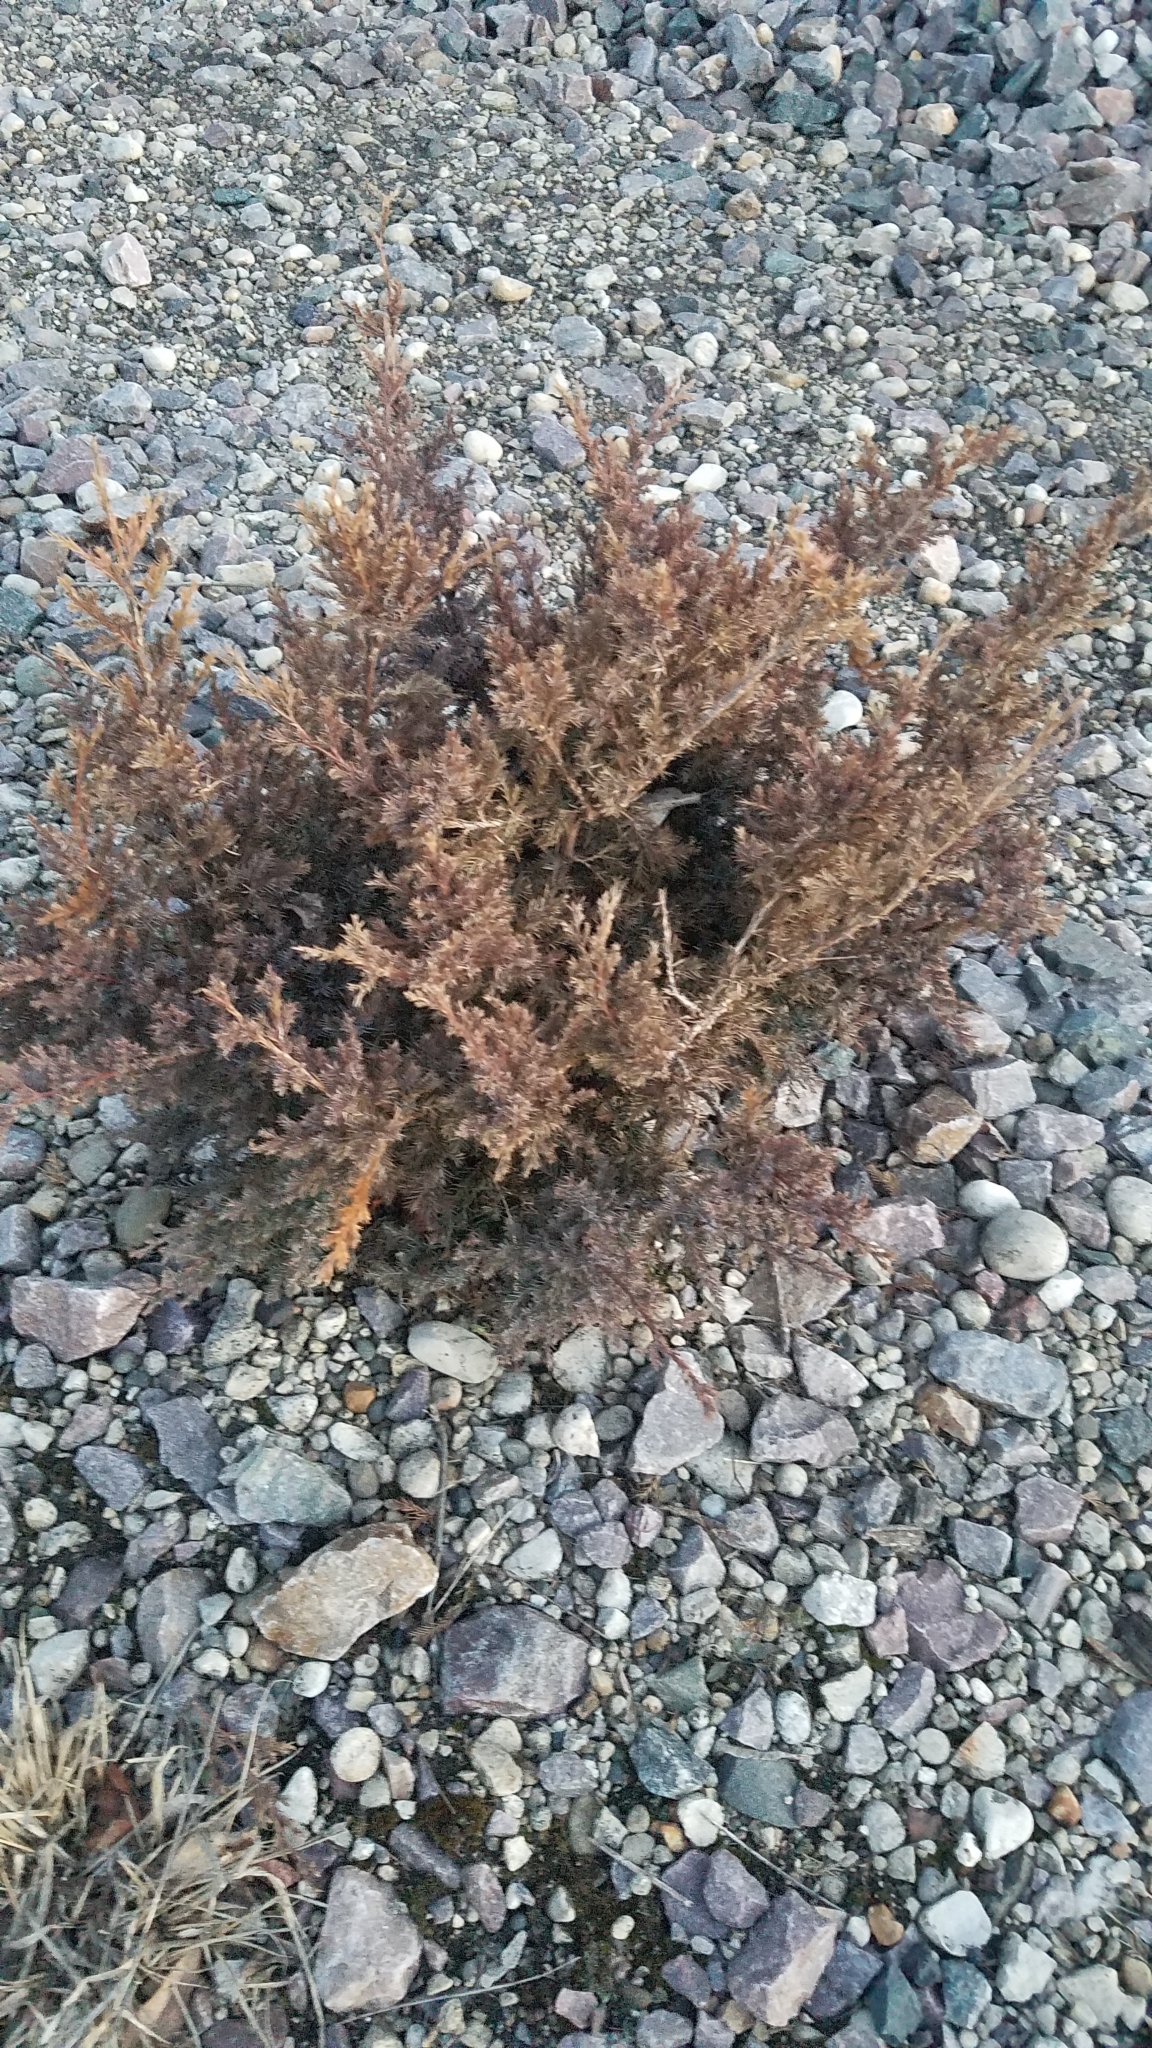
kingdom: Plantae
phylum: Tracheophyta
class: Pinopsida
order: Pinales
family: Cupressaceae
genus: Juniperus
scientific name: Juniperus virginiana
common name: Red juniper
